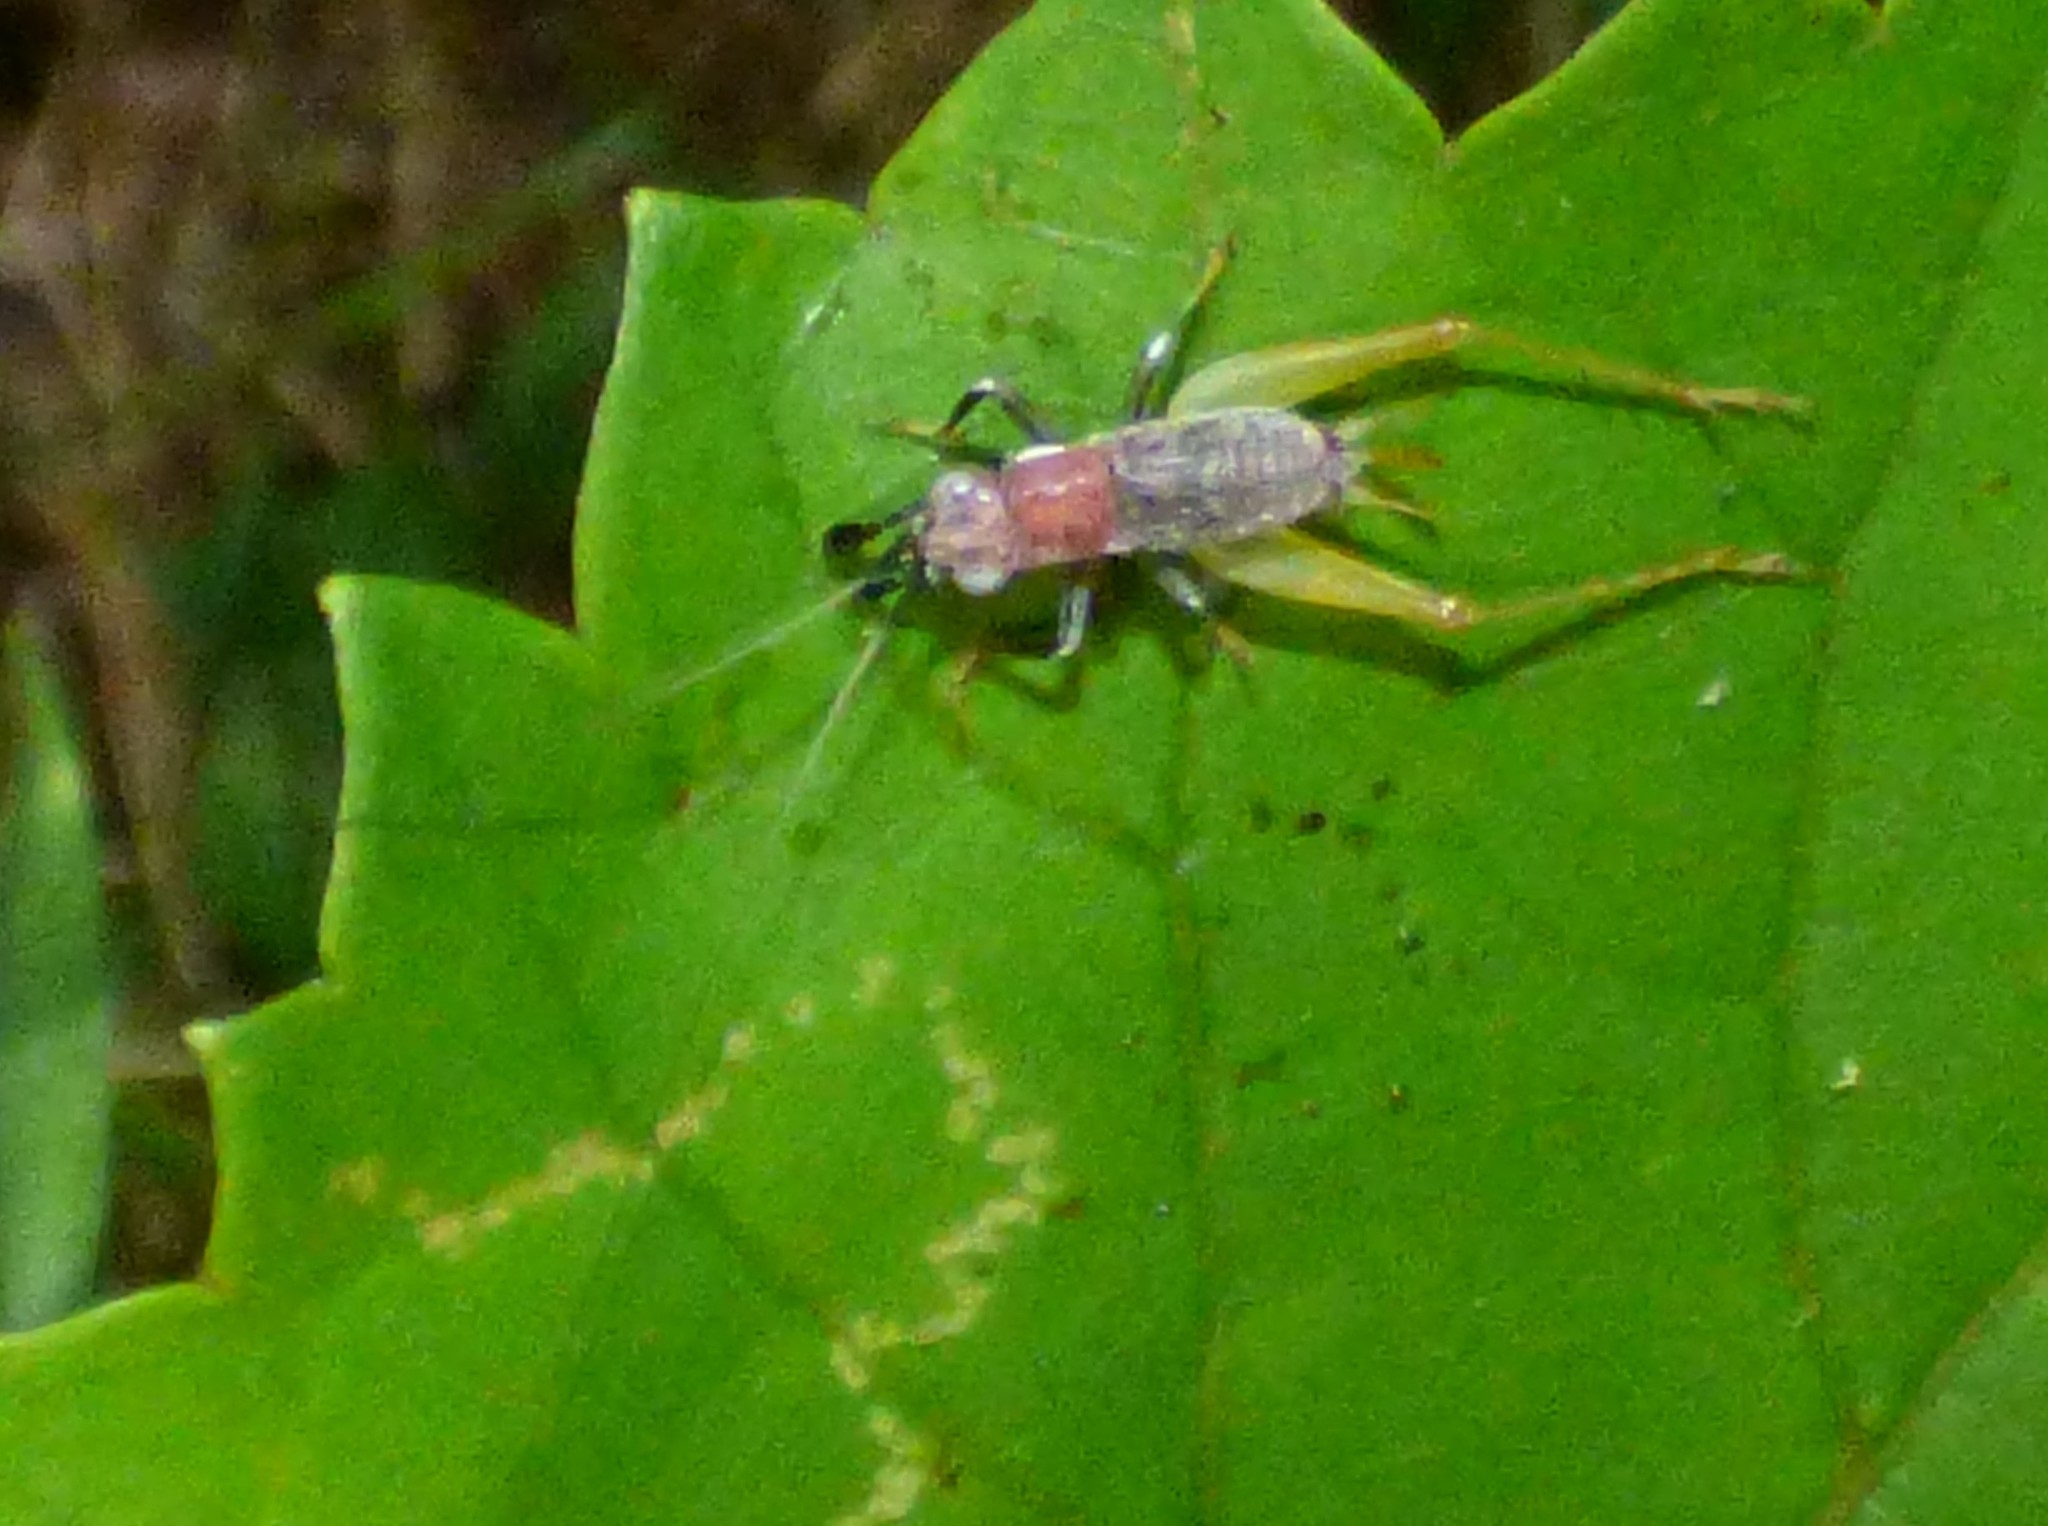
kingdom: Animalia
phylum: Arthropoda
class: Insecta
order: Orthoptera
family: Trigonidiidae
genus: Phyllopalpus
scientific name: Phyllopalpus pulchellus
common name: Handsome trig
